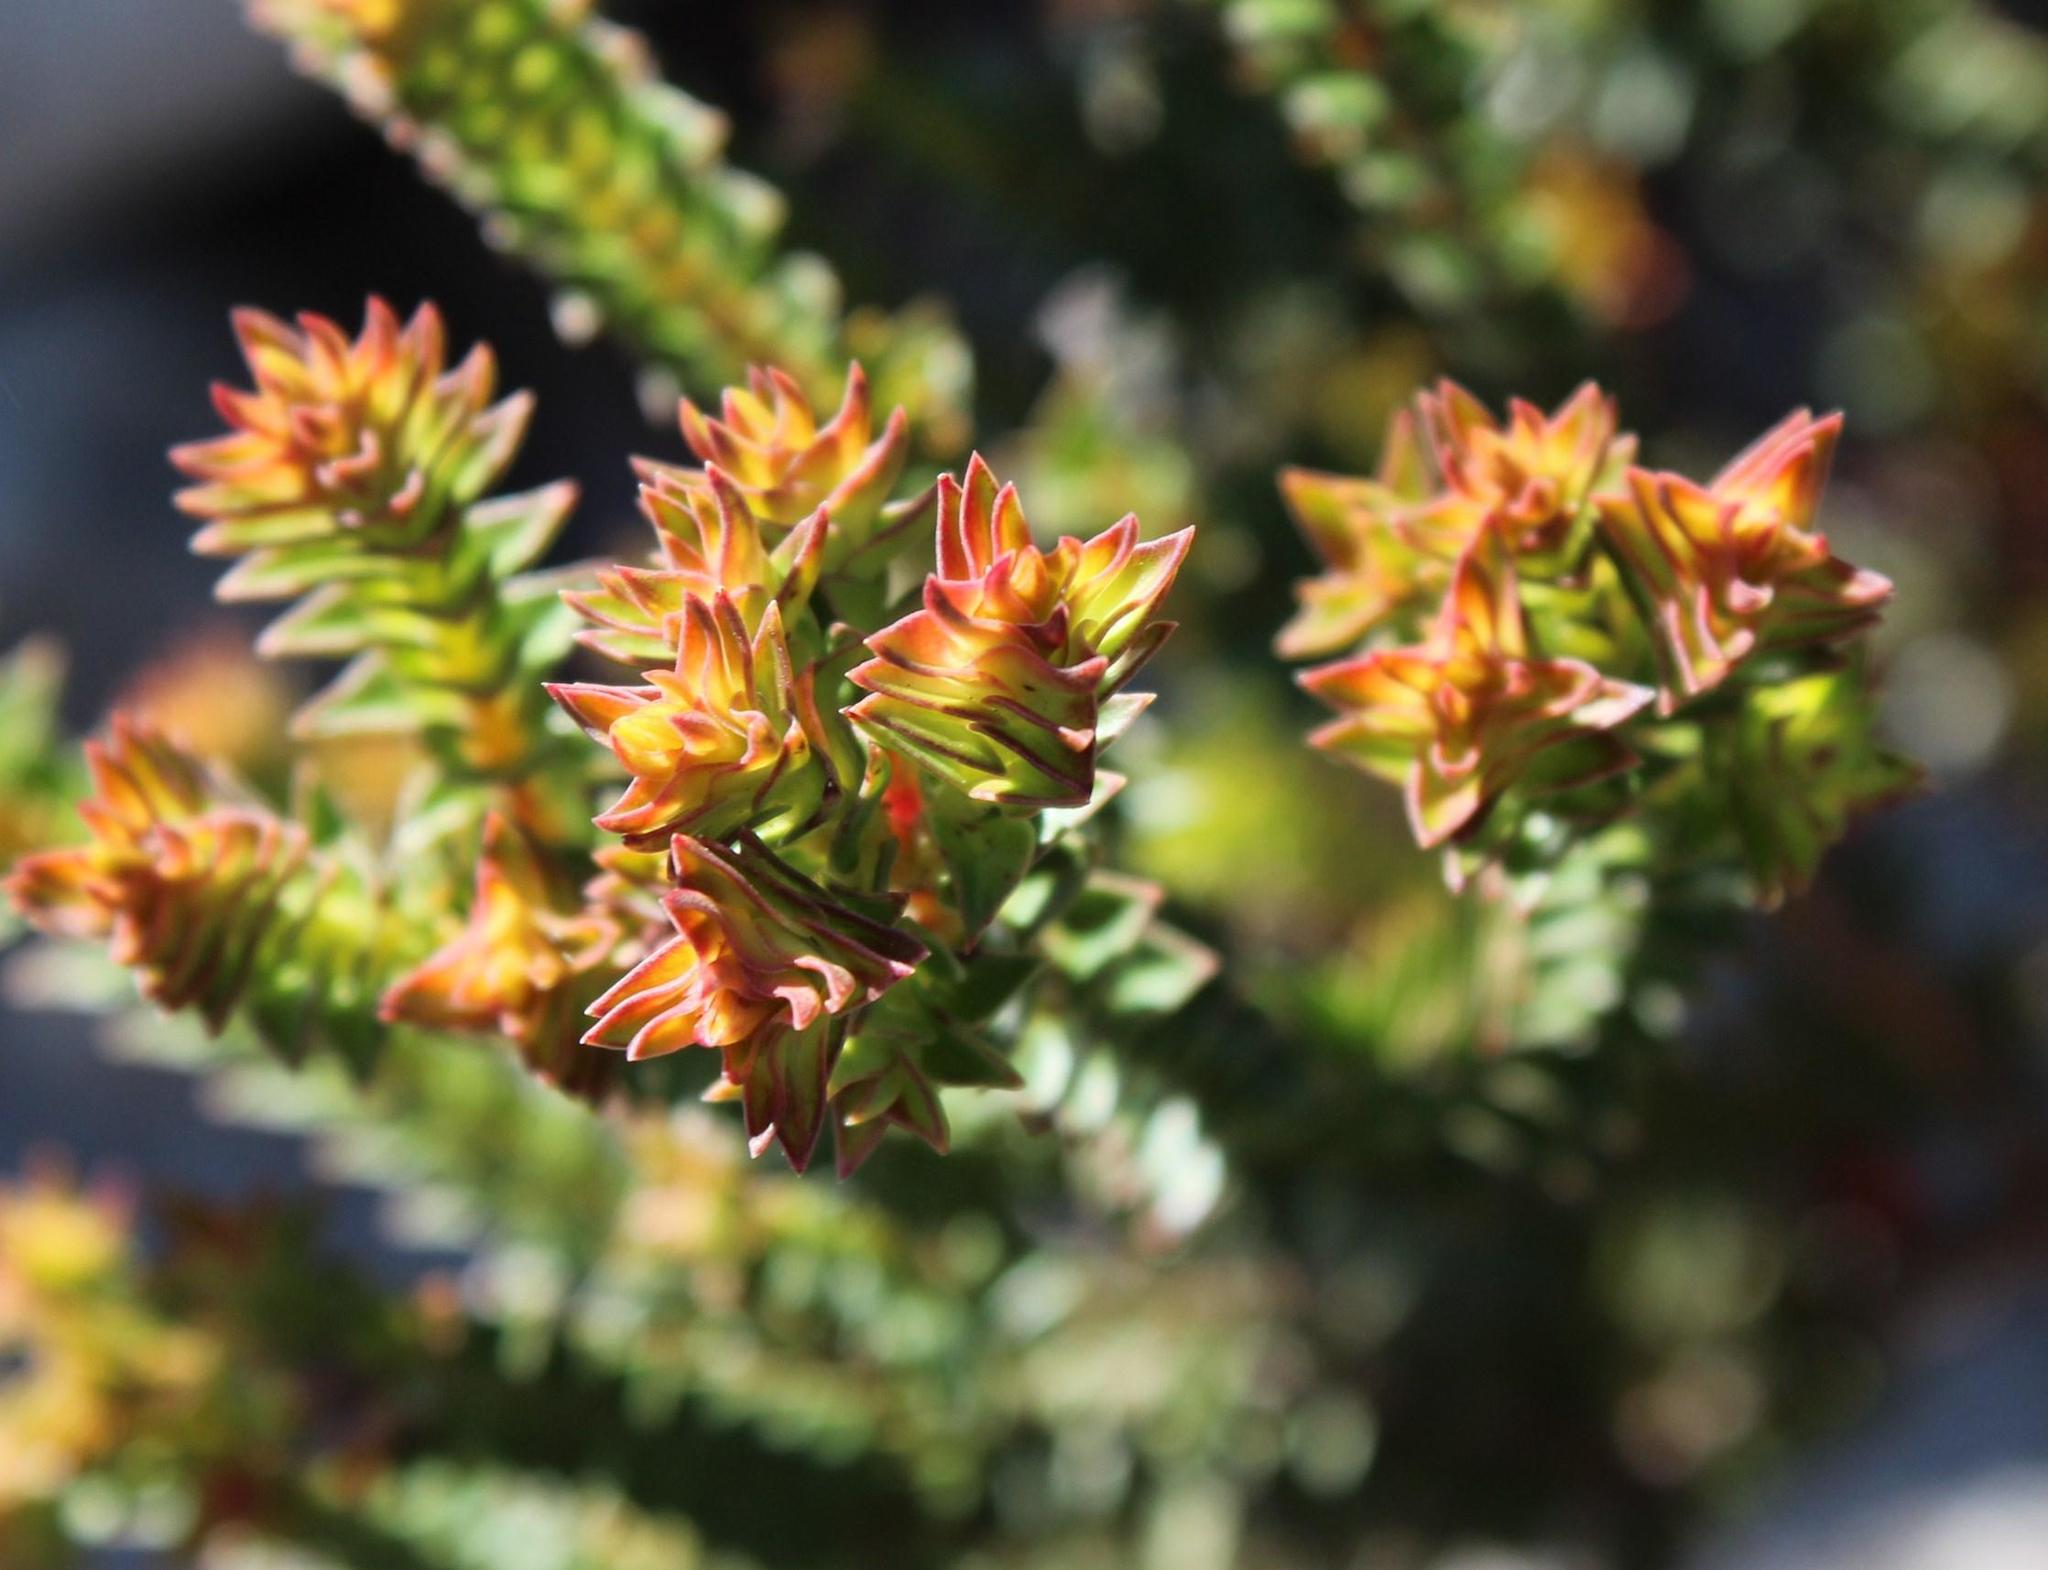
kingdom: Plantae
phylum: Tracheophyta
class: Magnoliopsida
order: Myrtales
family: Penaeaceae
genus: Penaea
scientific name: Penaea mucronata
